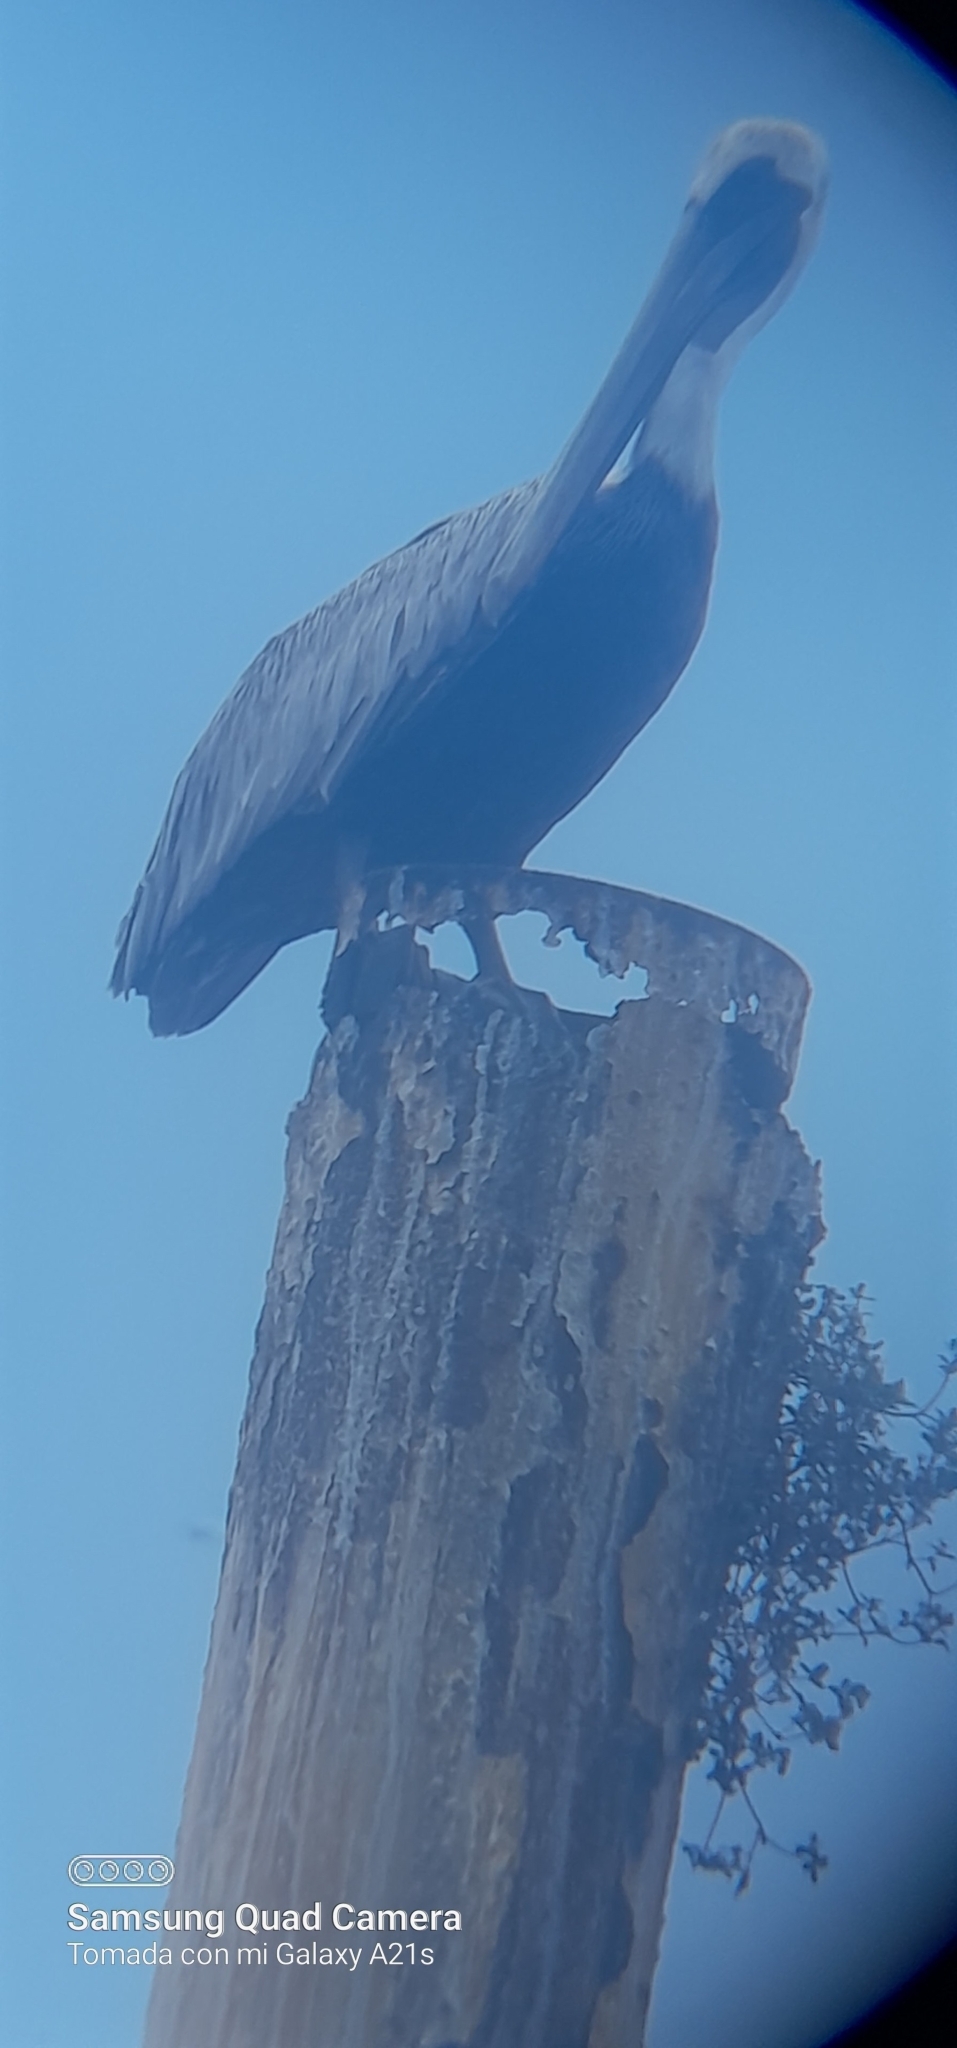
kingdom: Animalia
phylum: Chordata
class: Aves
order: Pelecaniformes
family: Pelecanidae
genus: Pelecanus
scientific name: Pelecanus occidentalis
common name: Brown pelican
